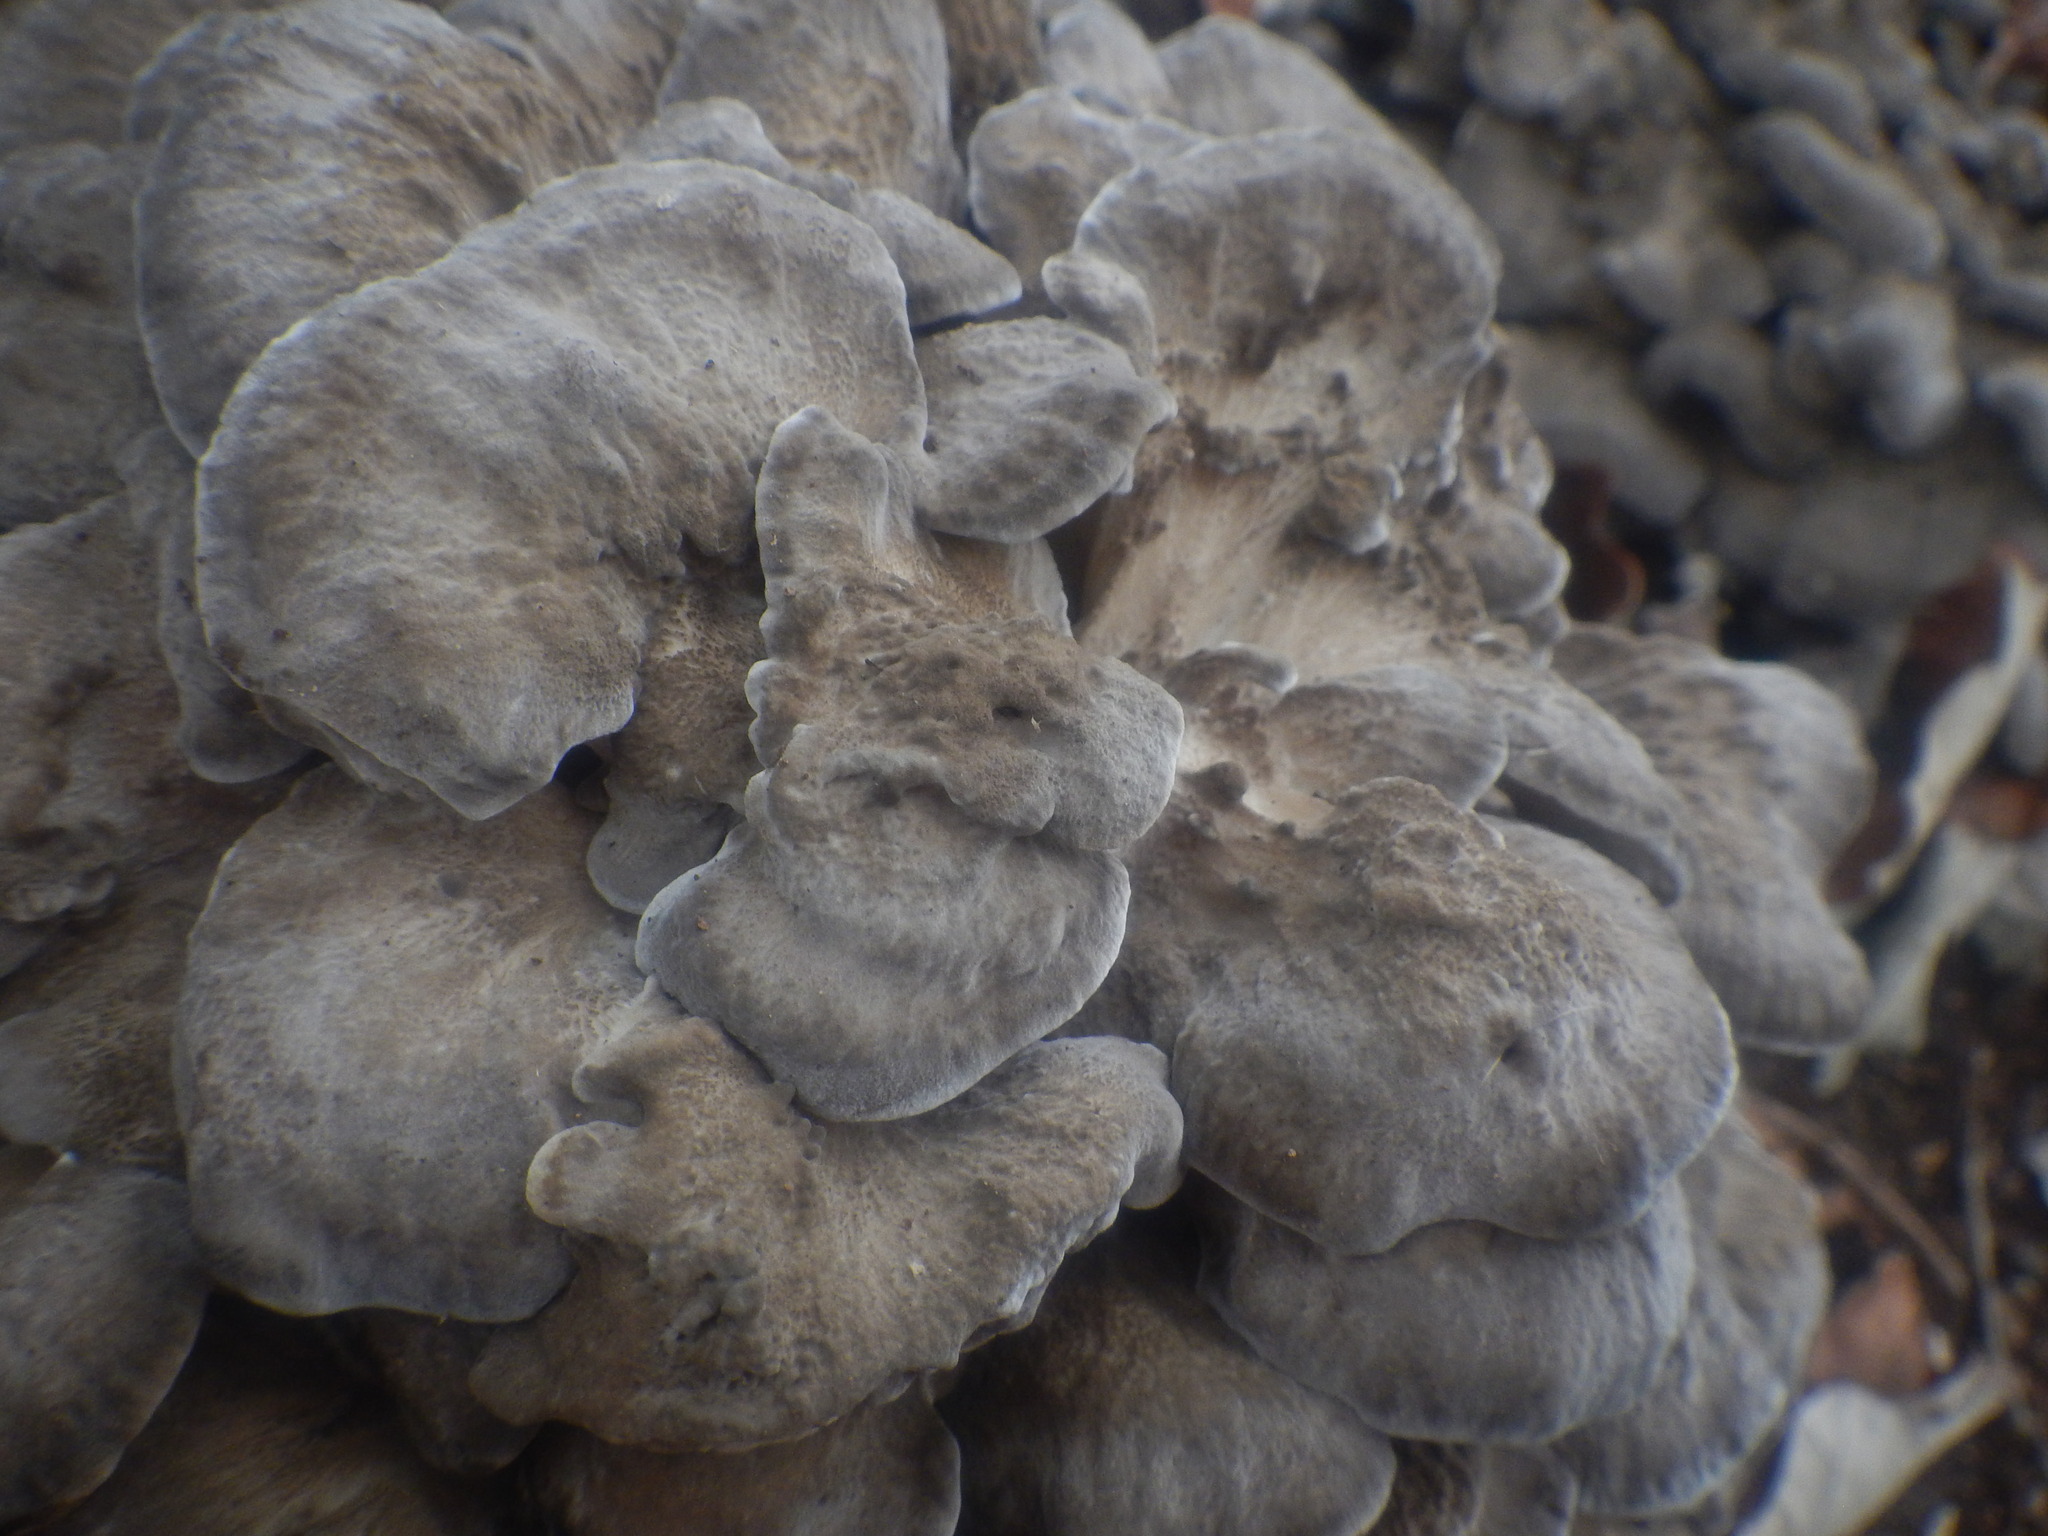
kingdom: Fungi
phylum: Basidiomycota
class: Agaricomycetes
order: Polyporales
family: Grifolaceae
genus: Grifola
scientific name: Grifola frondosa
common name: Hen of the woods
